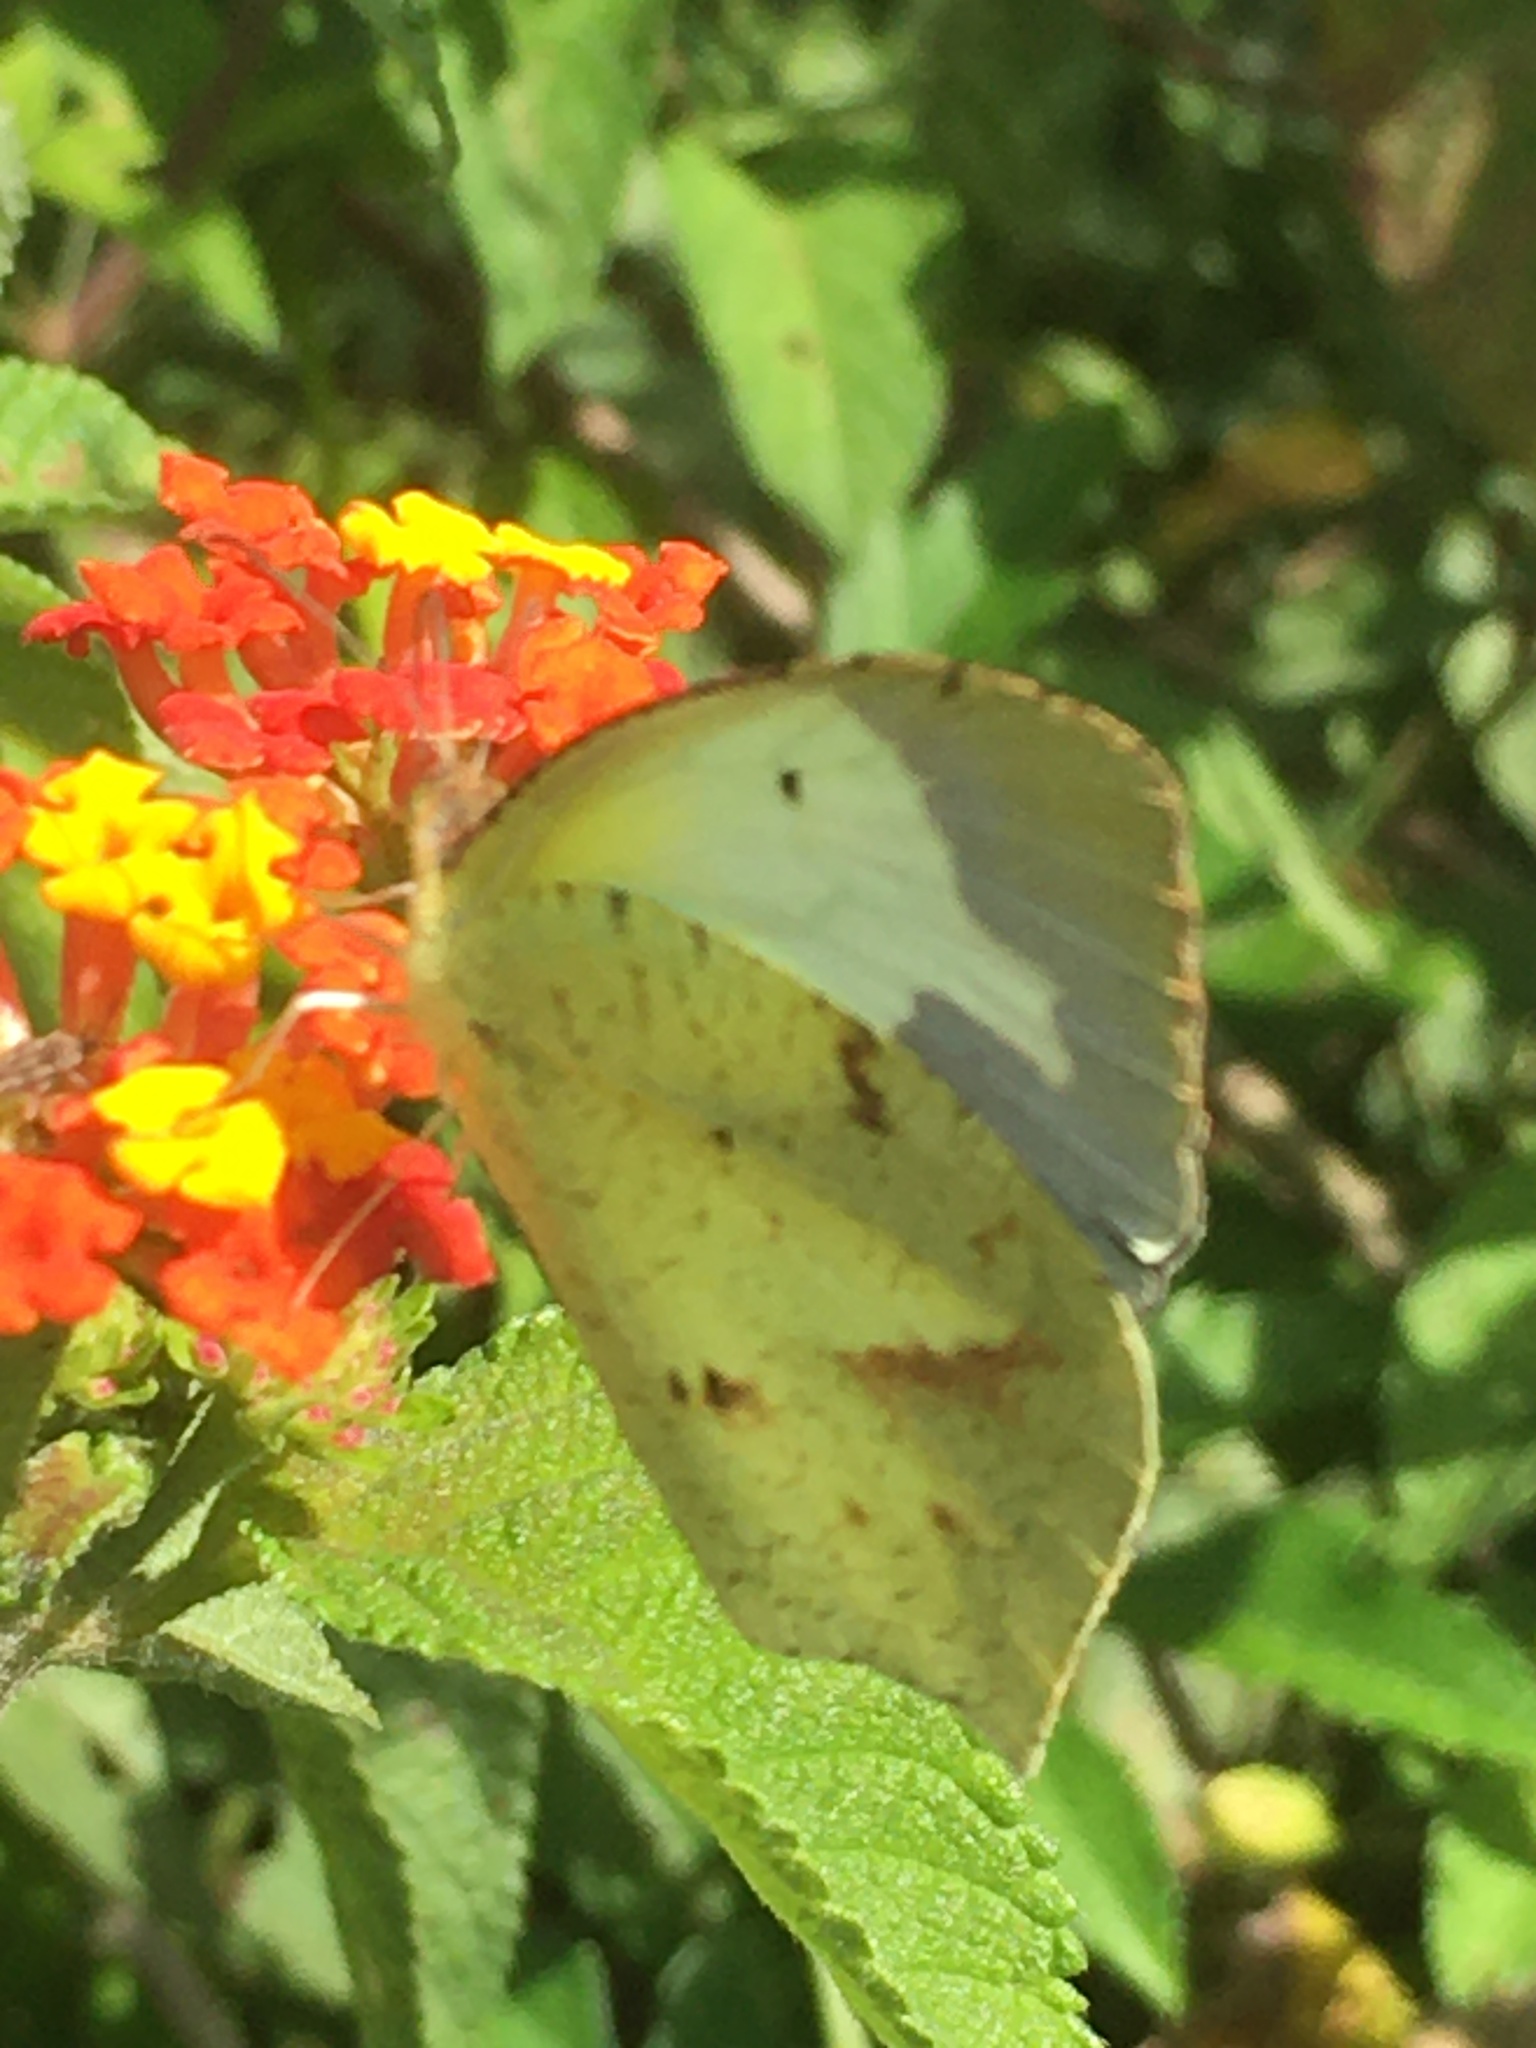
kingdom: Animalia
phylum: Arthropoda
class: Insecta
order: Lepidoptera
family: Pieridae
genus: Abaeis
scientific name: Abaeis mexicana
